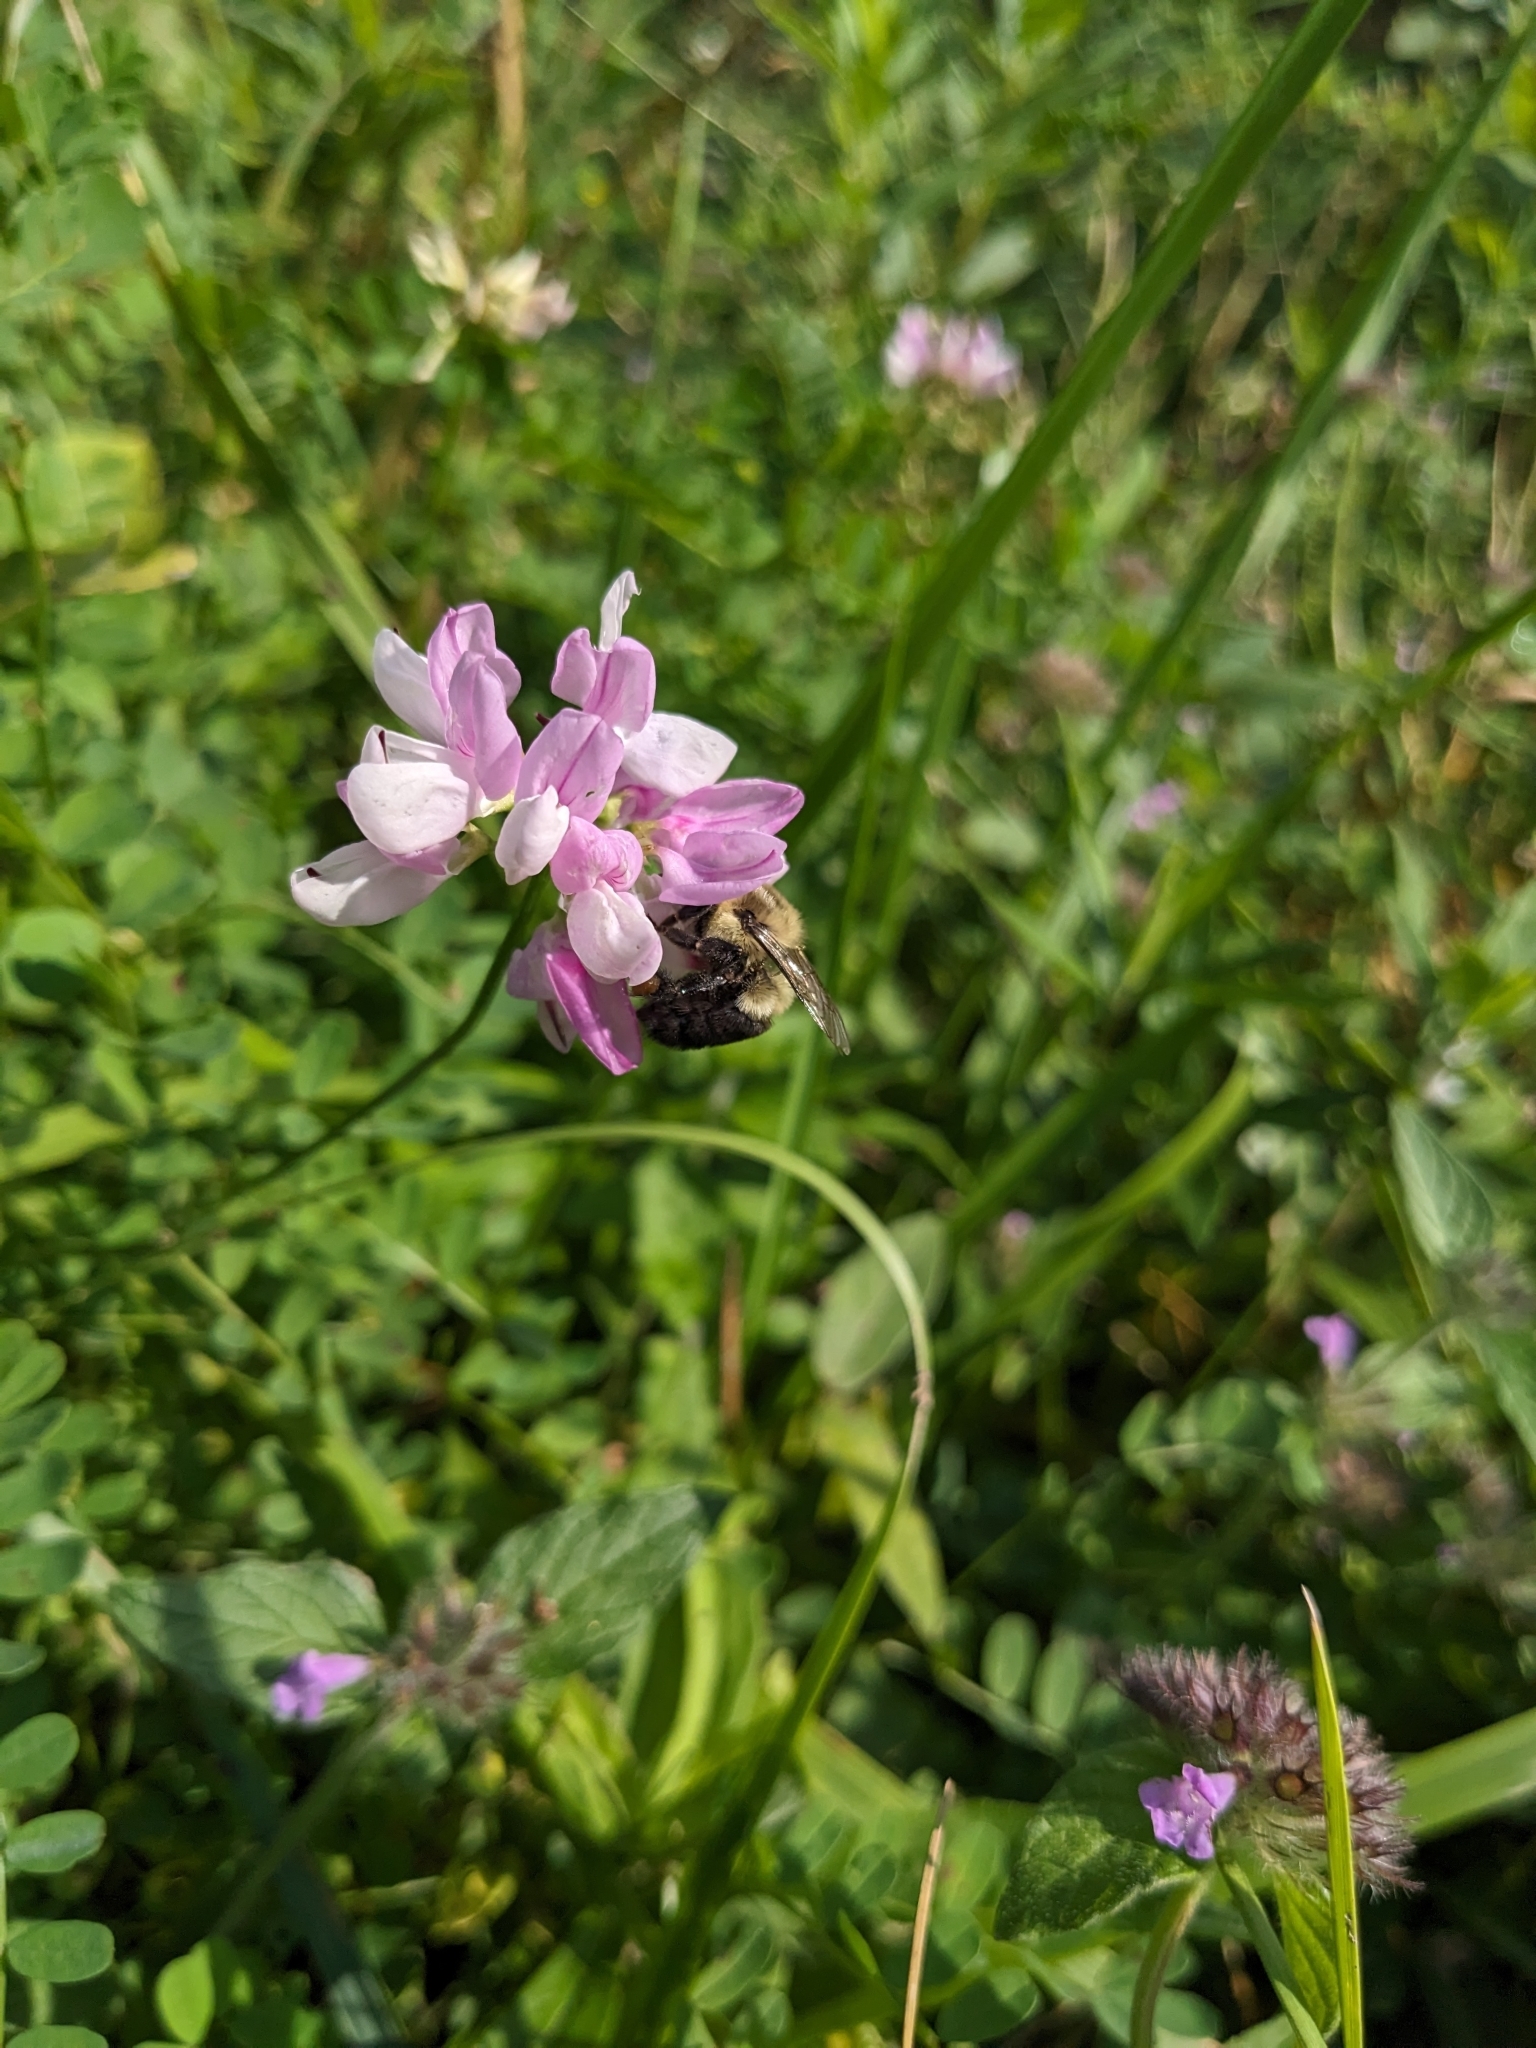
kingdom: Plantae
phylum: Tracheophyta
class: Magnoliopsida
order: Fabales
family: Fabaceae
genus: Coronilla
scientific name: Coronilla varia
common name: Crownvetch
